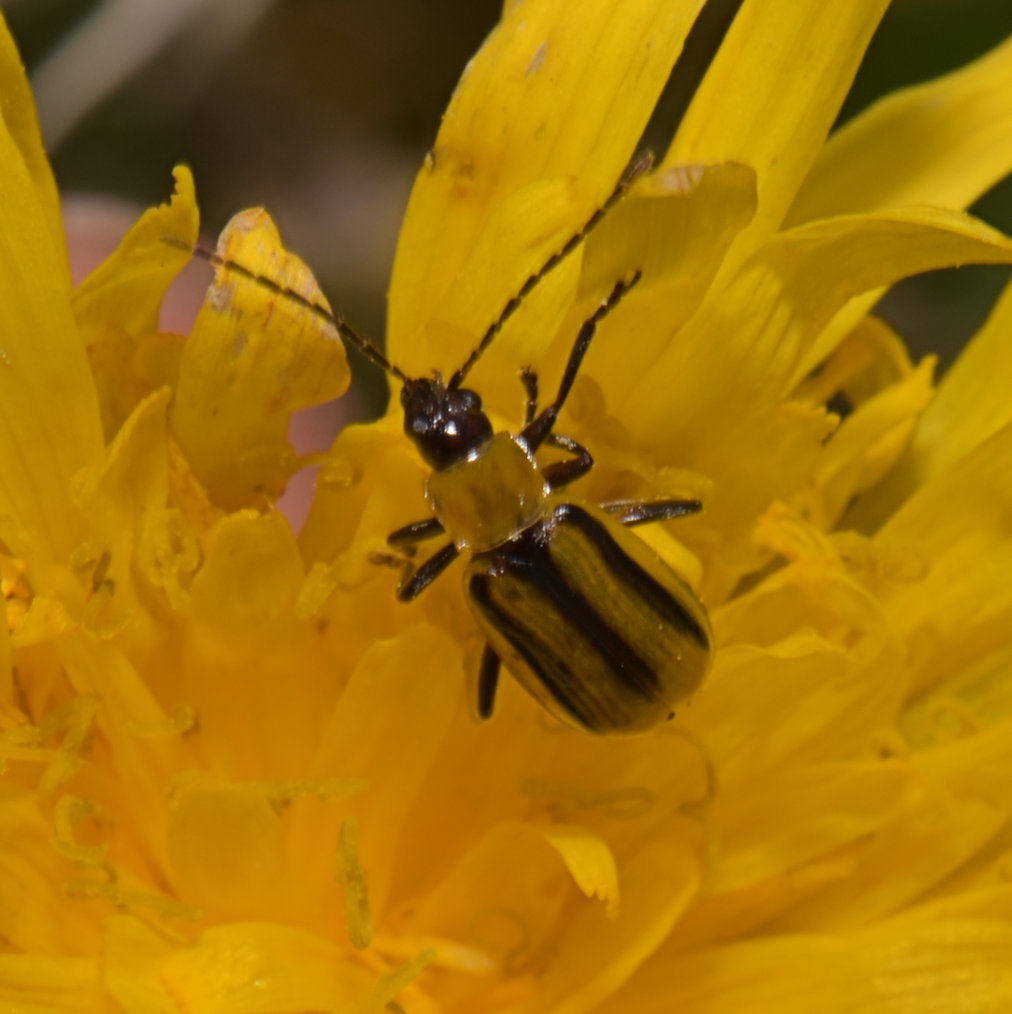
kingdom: Animalia
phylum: Arthropoda
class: Insecta
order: Coleoptera
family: Chrysomelidae
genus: Diabrotica
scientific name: Diabrotica virgifera
